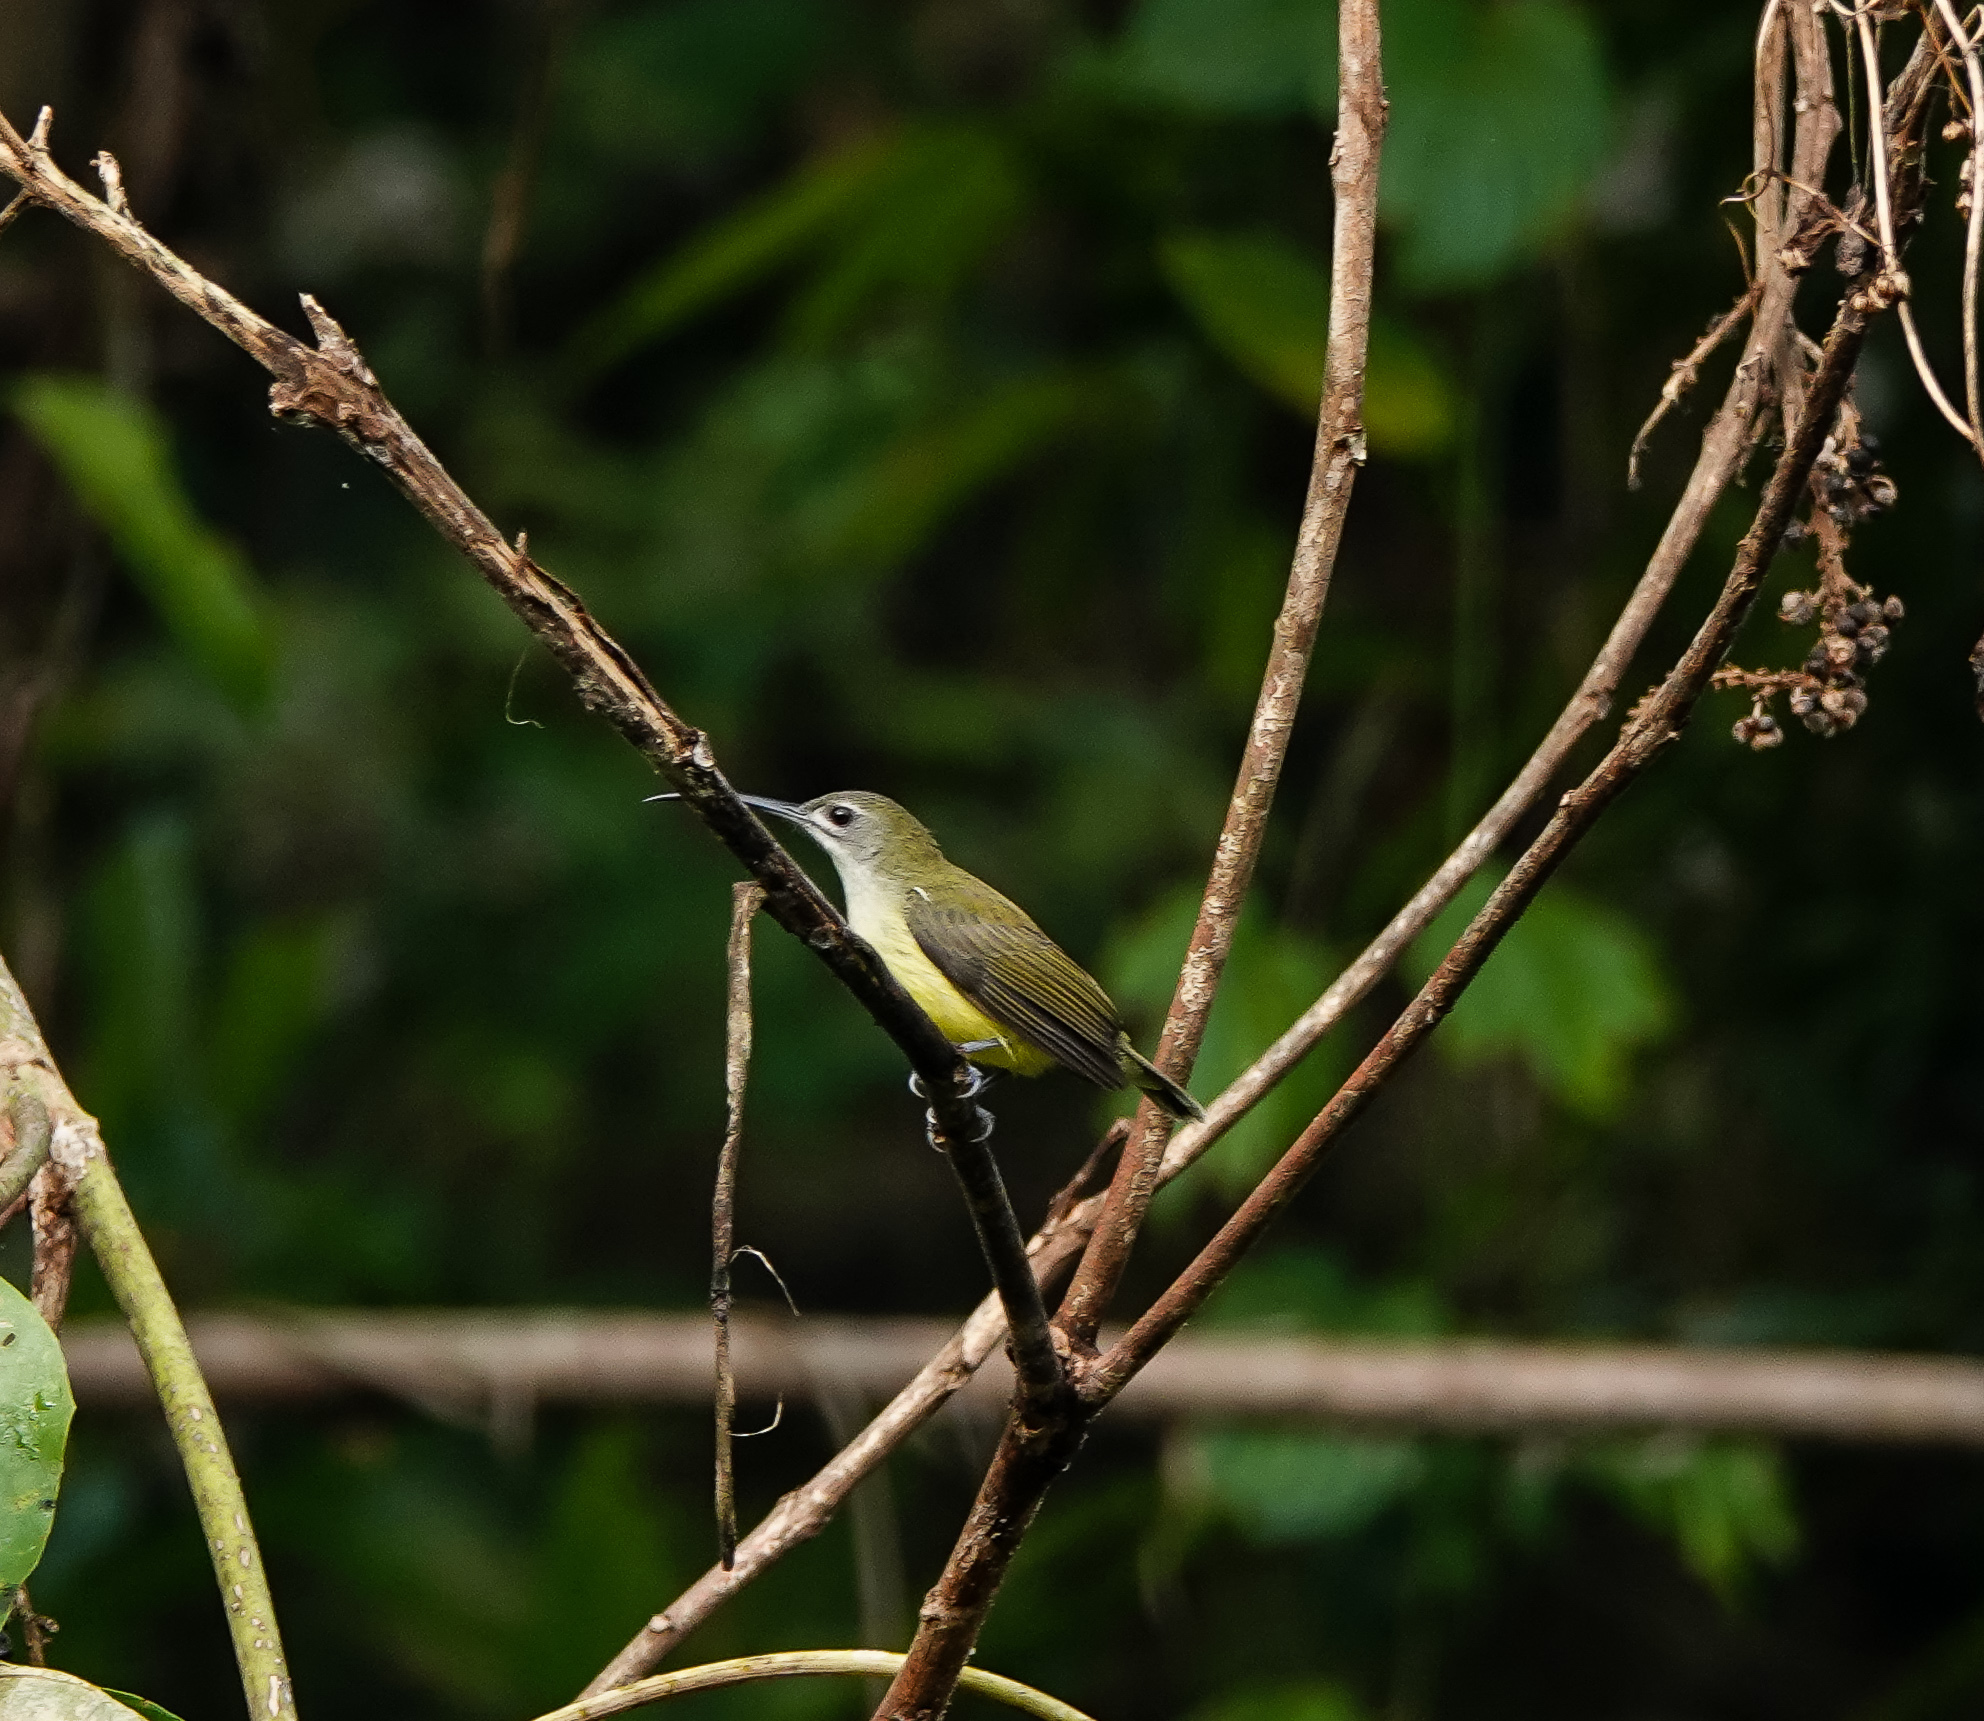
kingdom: Animalia
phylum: Chordata
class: Aves
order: Passeriformes
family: Nectariniidae
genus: Arachnothera
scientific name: Arachnothera longirostra
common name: Little spiderhunter
